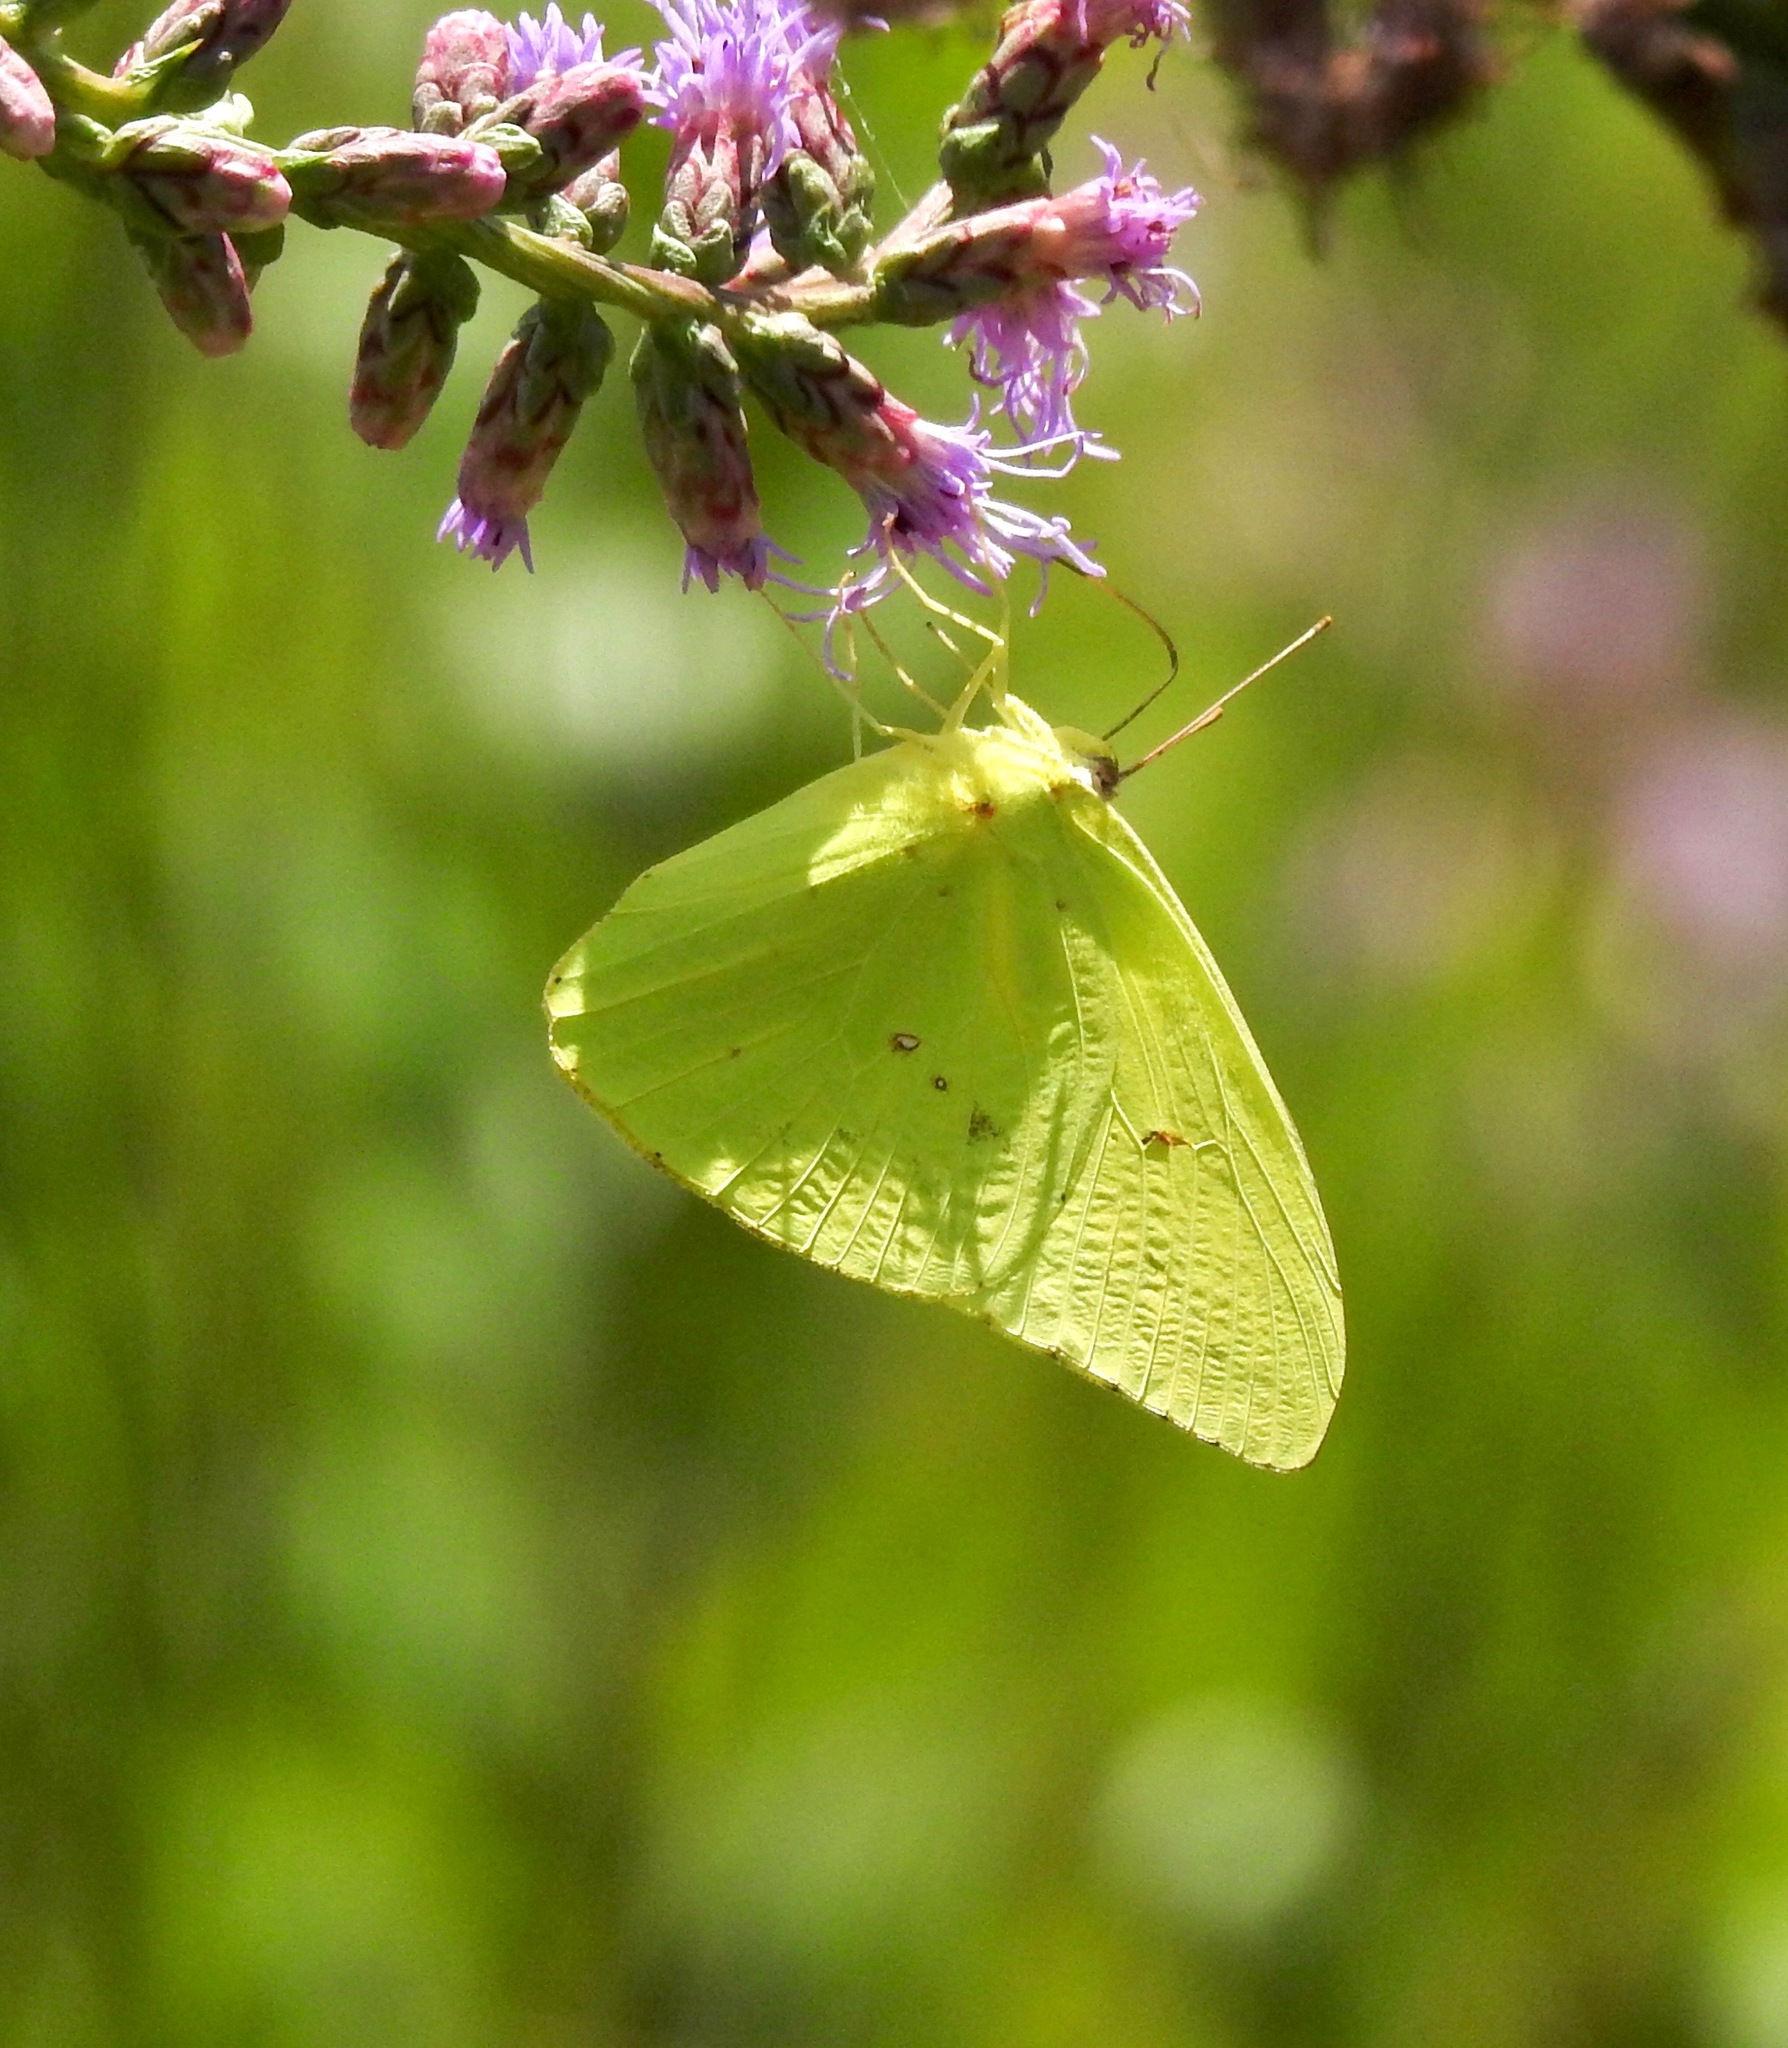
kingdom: Animalia
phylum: Arthropoda
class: Insecta
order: Lepidoptera
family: Pieridae
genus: Phoebis
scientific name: Phoebis sennae
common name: Cloudless sulphur
